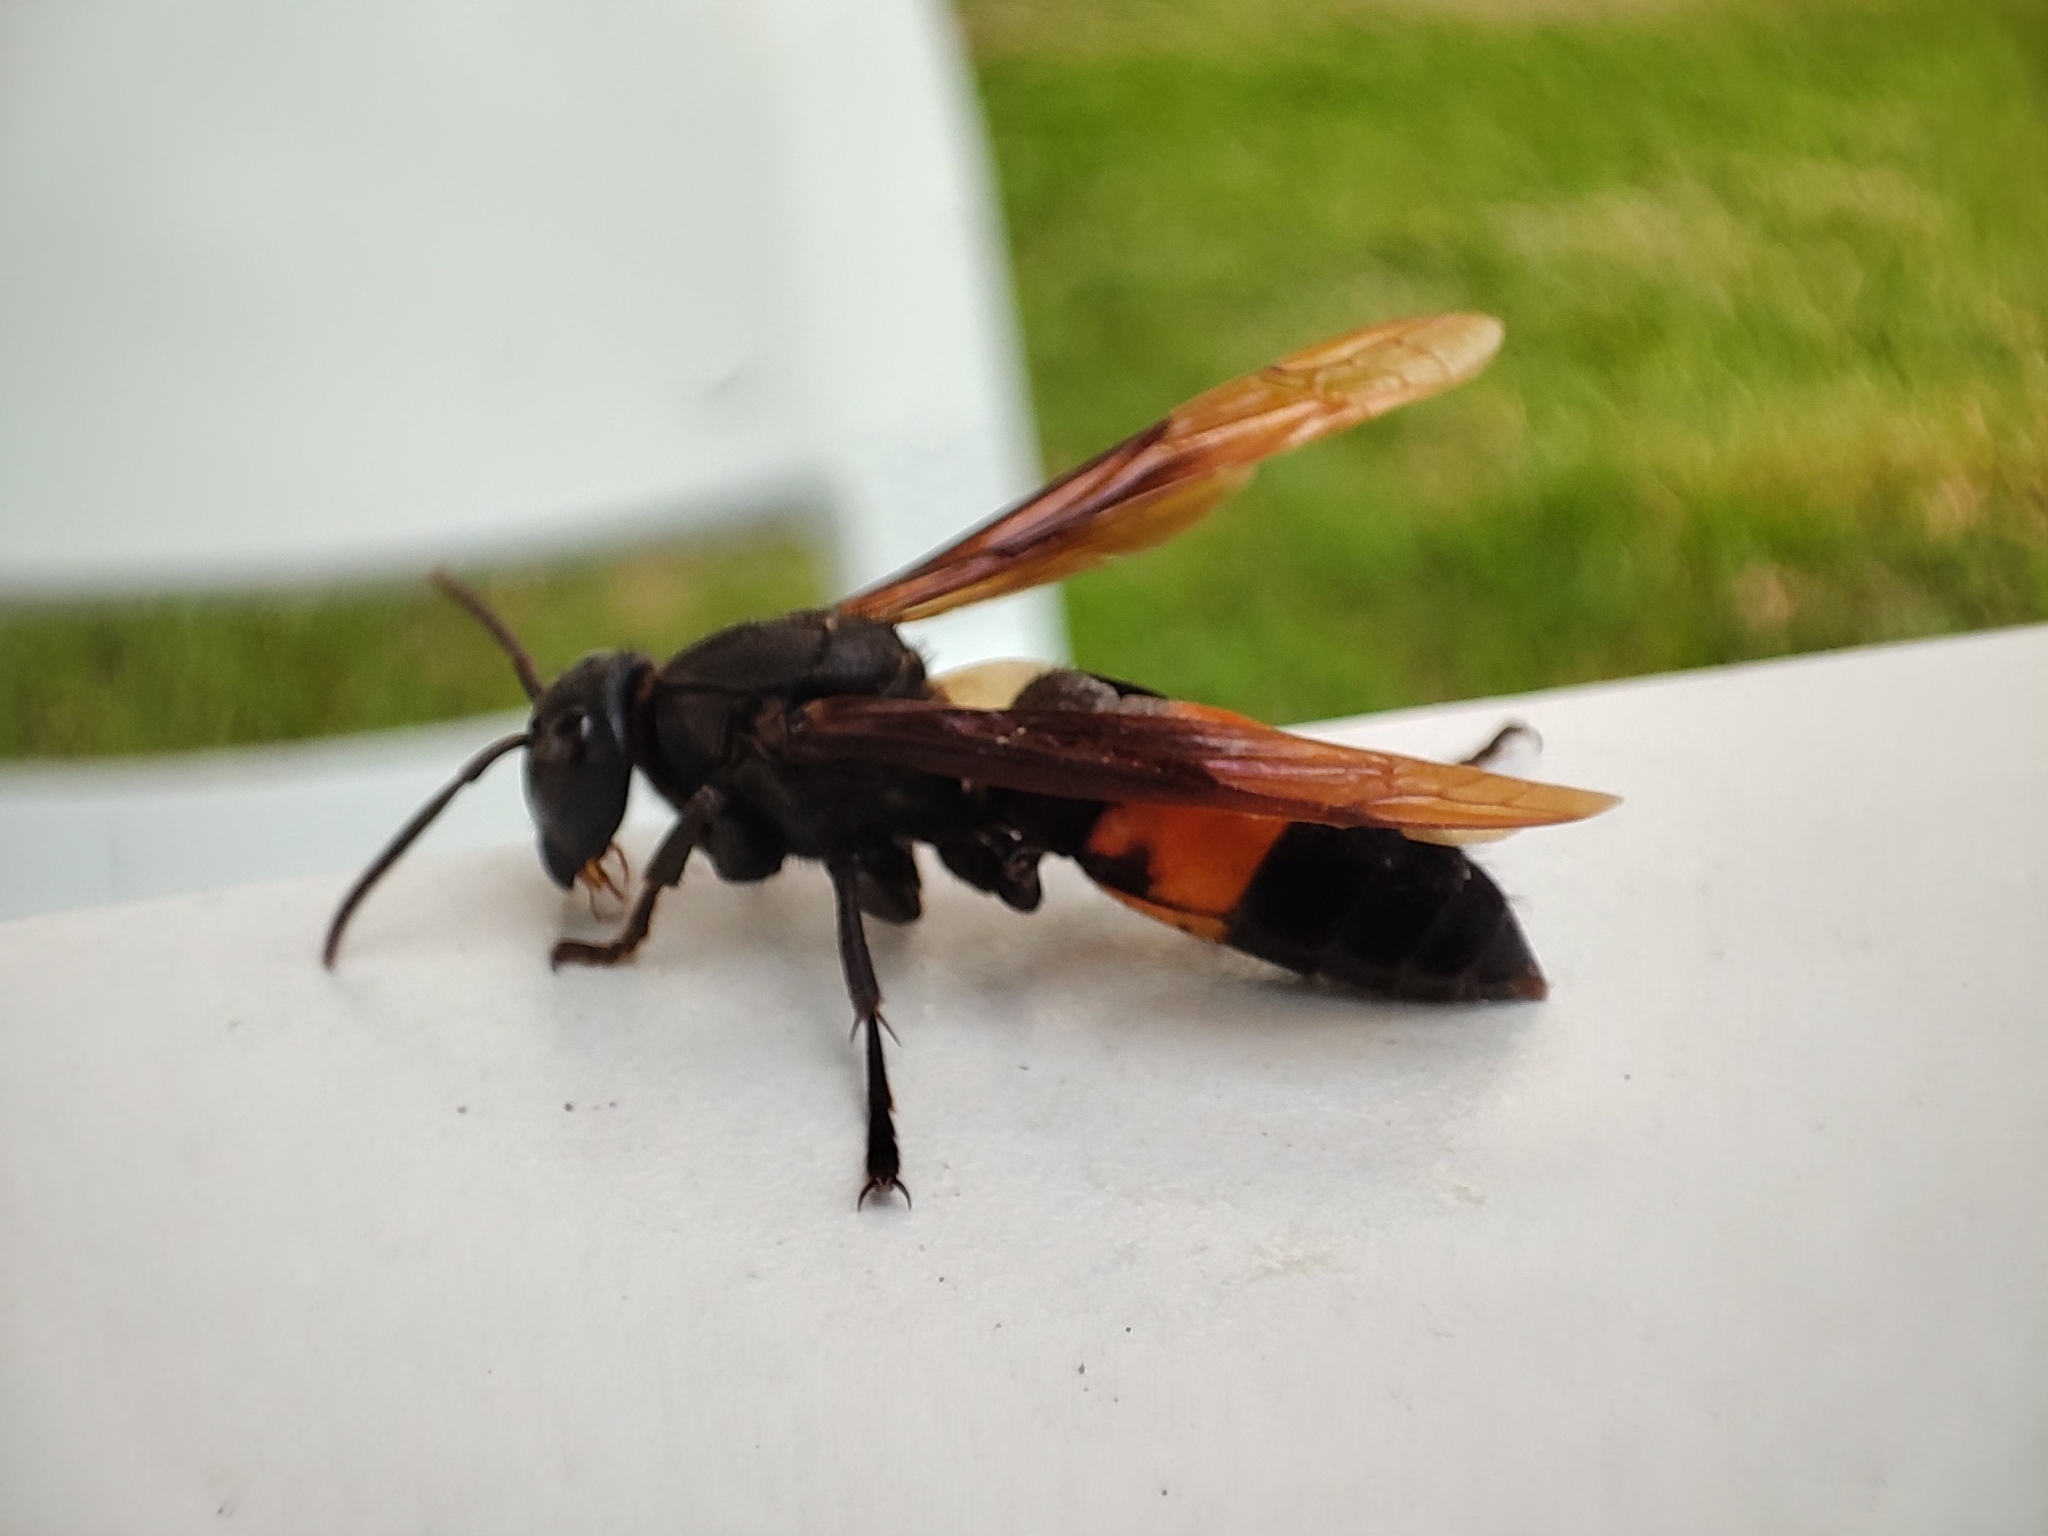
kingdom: Animalia
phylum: Arthropoda
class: Insecta
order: Hymenoptera
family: Eumenidae
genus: Polistes
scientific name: Polistes sagittarius
